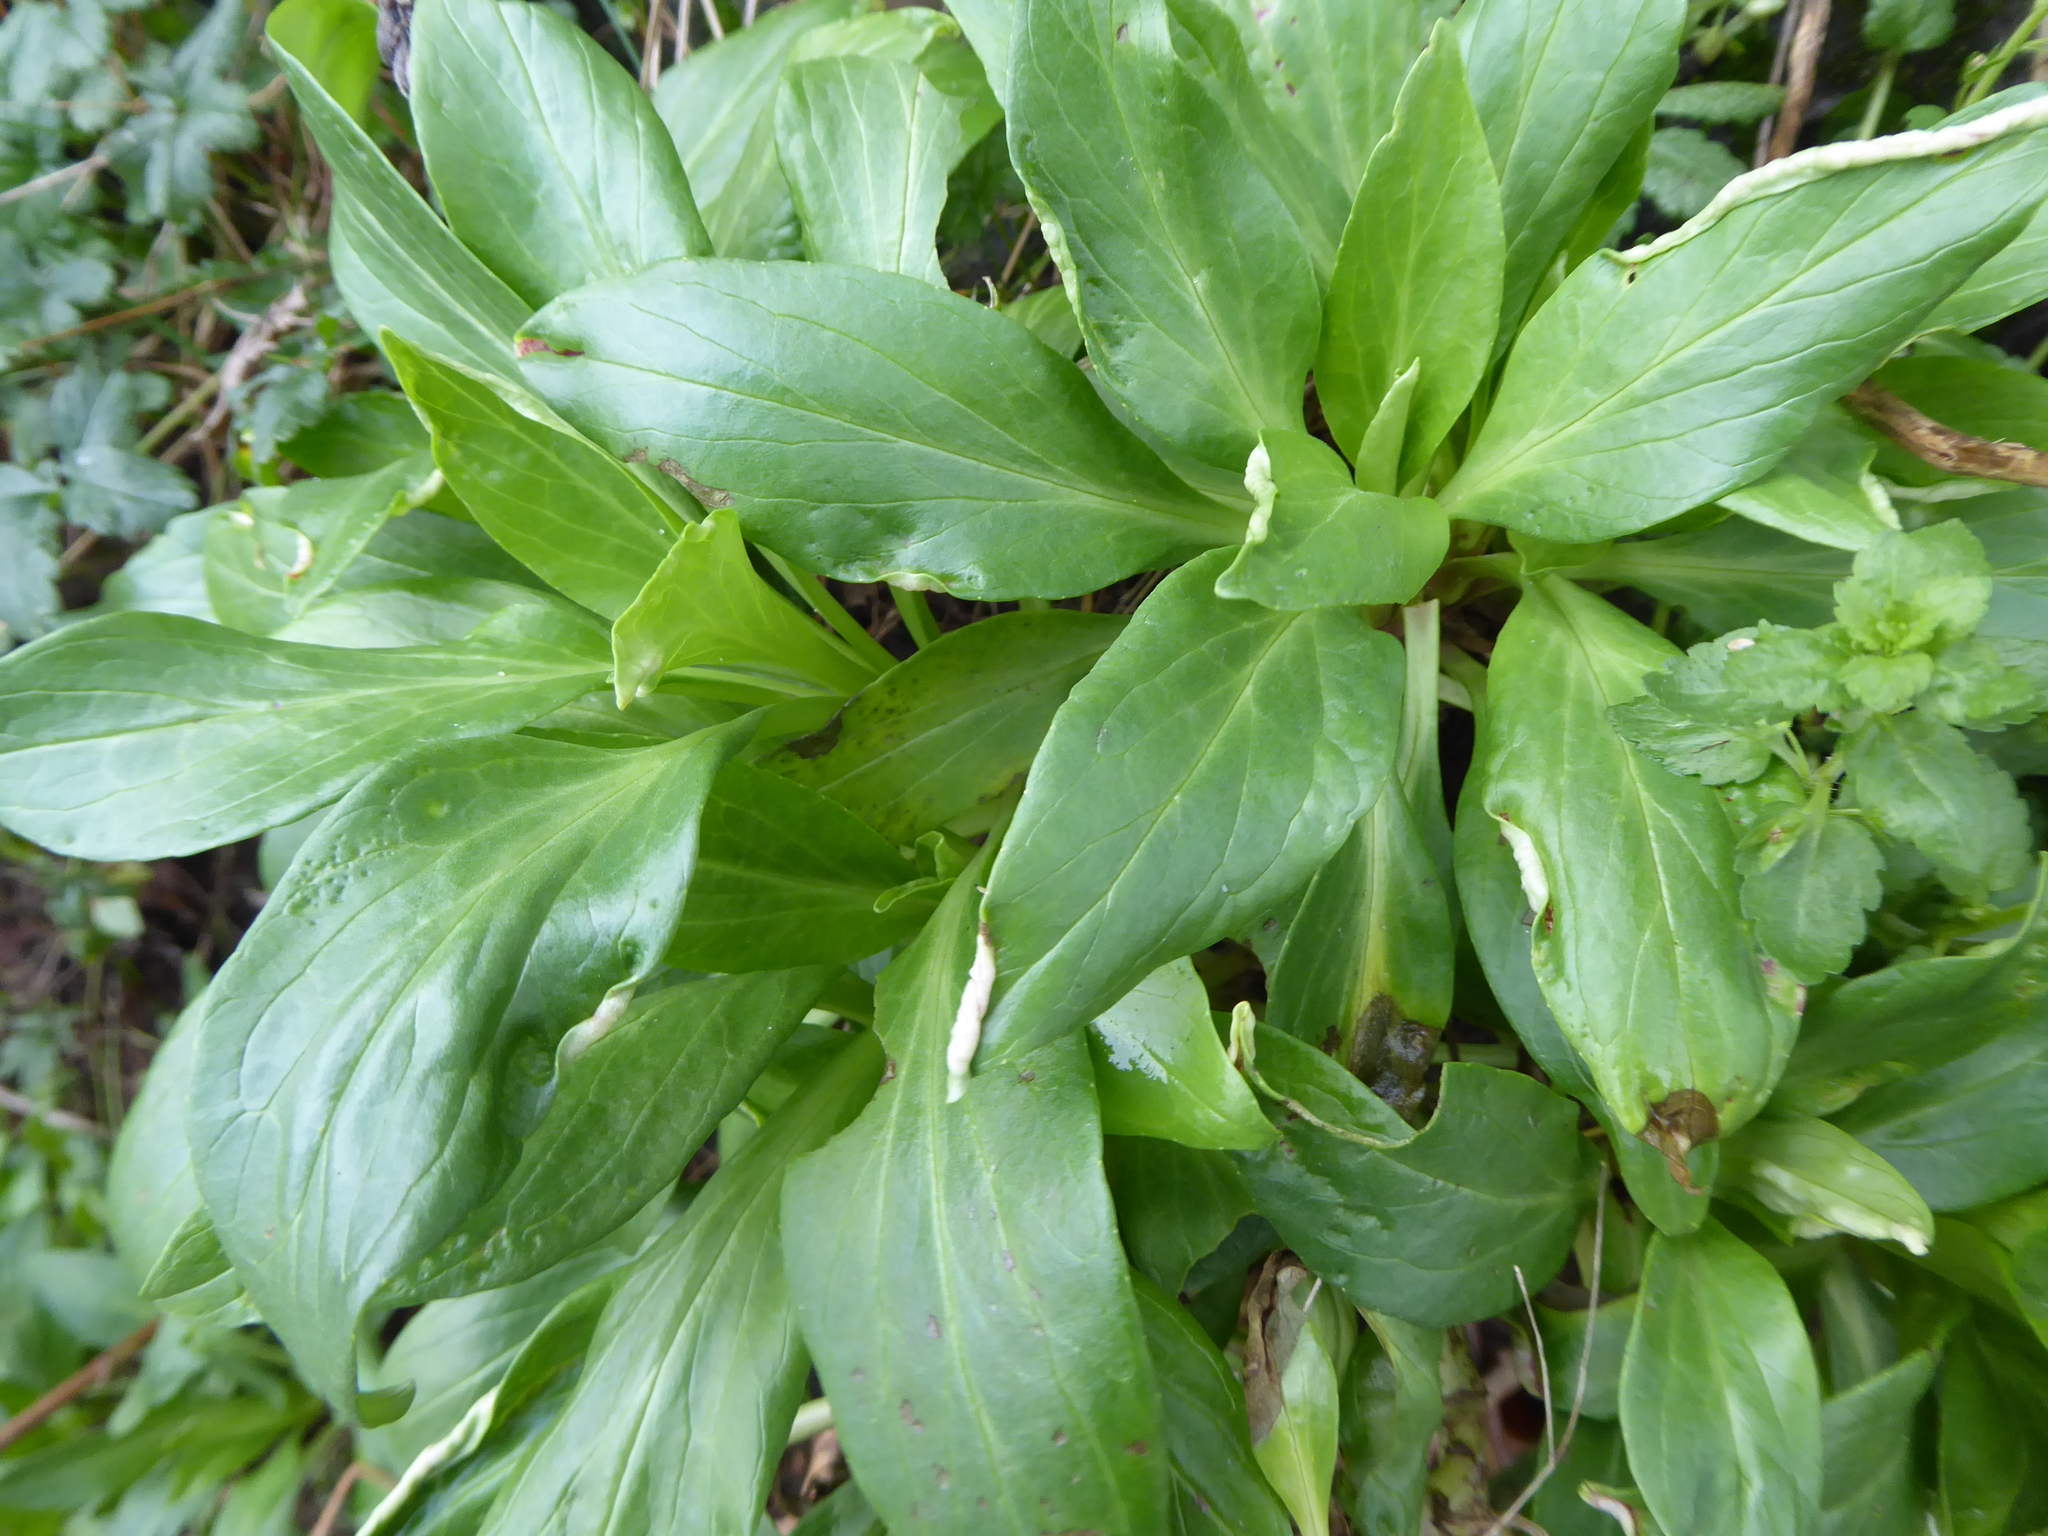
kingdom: Plantae
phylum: Tracheophyta
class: Magnoliopsida
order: Dipsacales
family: Caprifoliaceae
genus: Centranthus
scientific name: Centranthus ruber
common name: Red valerian
